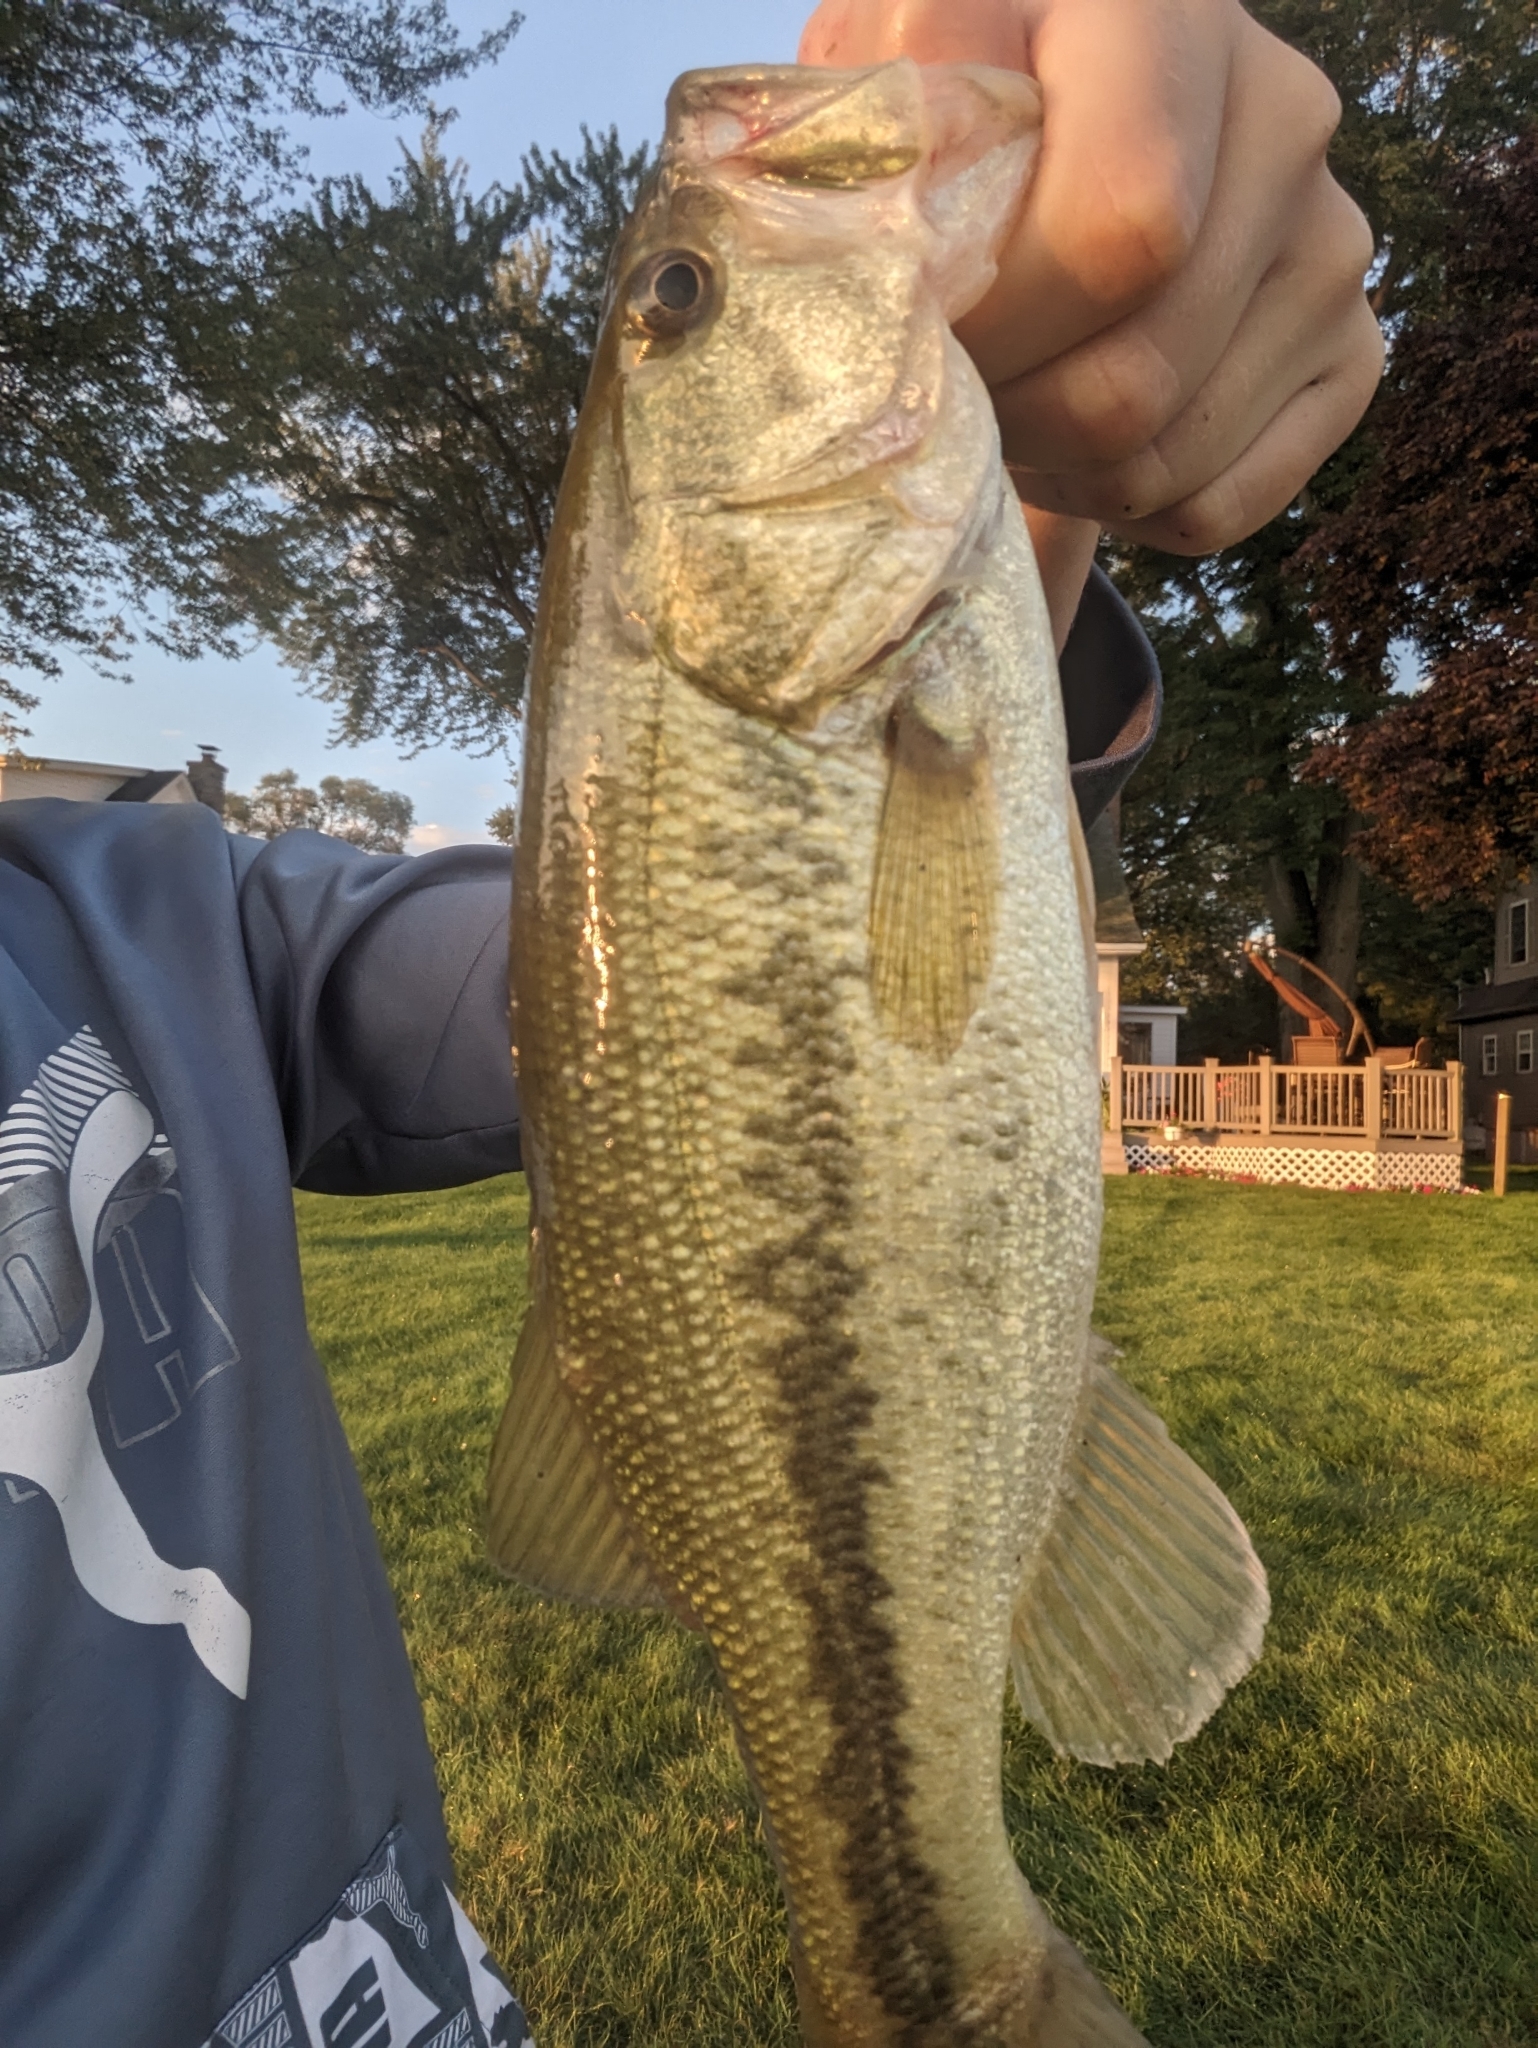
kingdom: Animalia
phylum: Chordata
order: Perciformes
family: Centrarchidae
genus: Micropterus
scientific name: Micropterus
